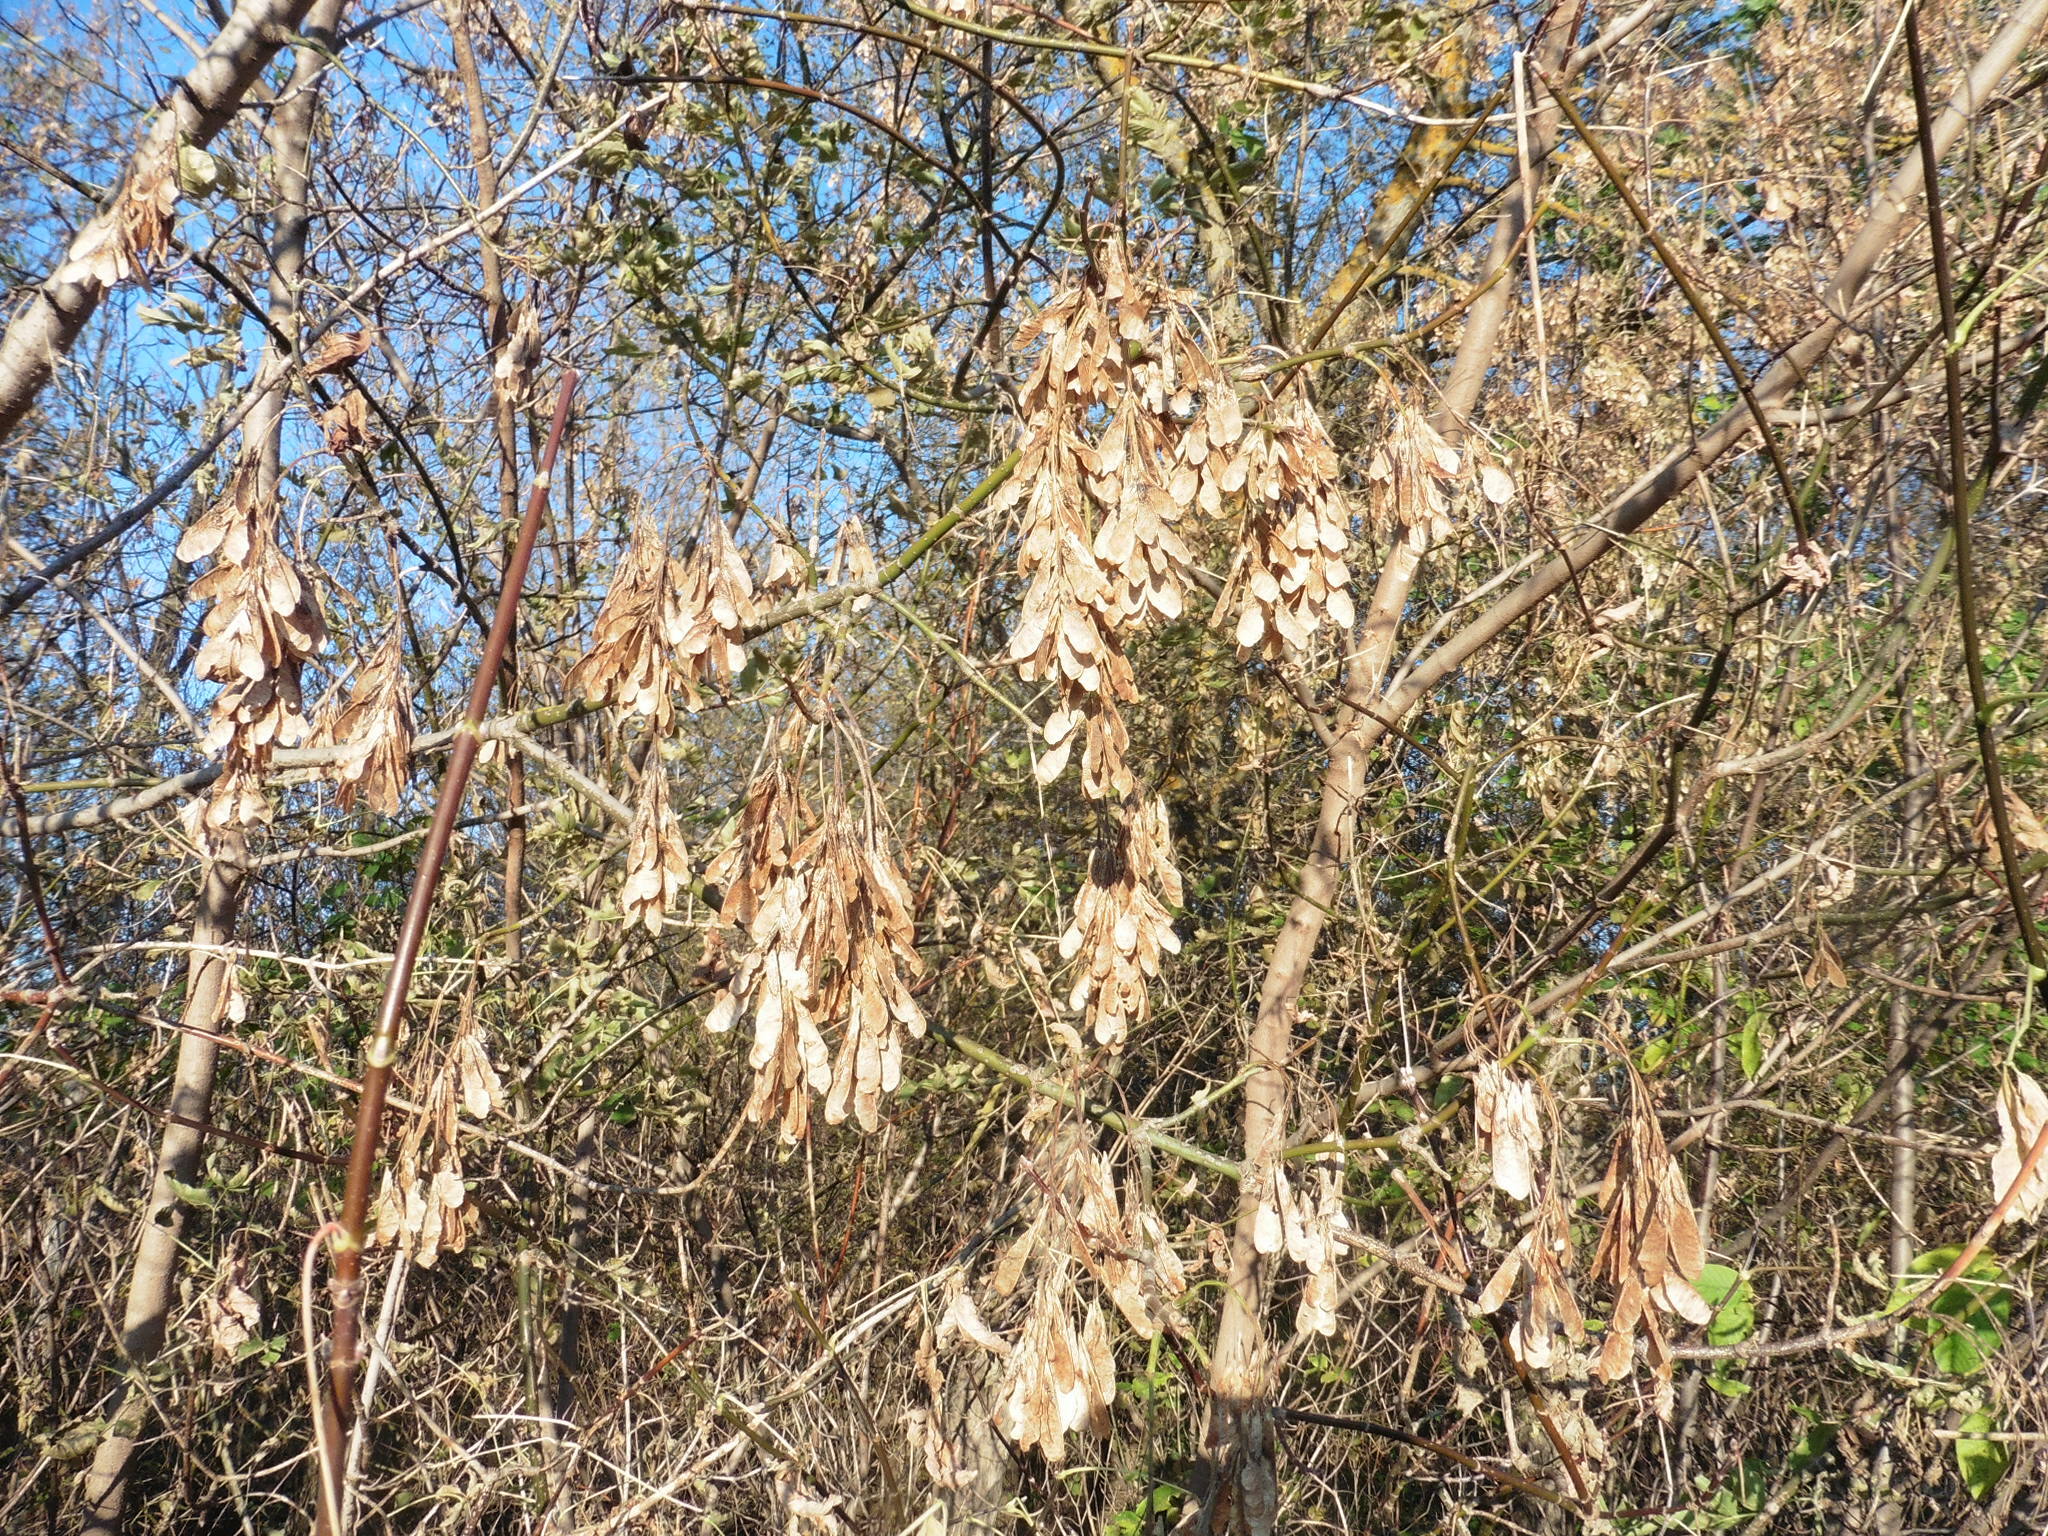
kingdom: Plantae
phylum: Tracheophyta
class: Magnoliopsida
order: Sapindales
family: Sapindaceae
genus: Acer
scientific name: Acer negundo
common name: Ashleaf maple
